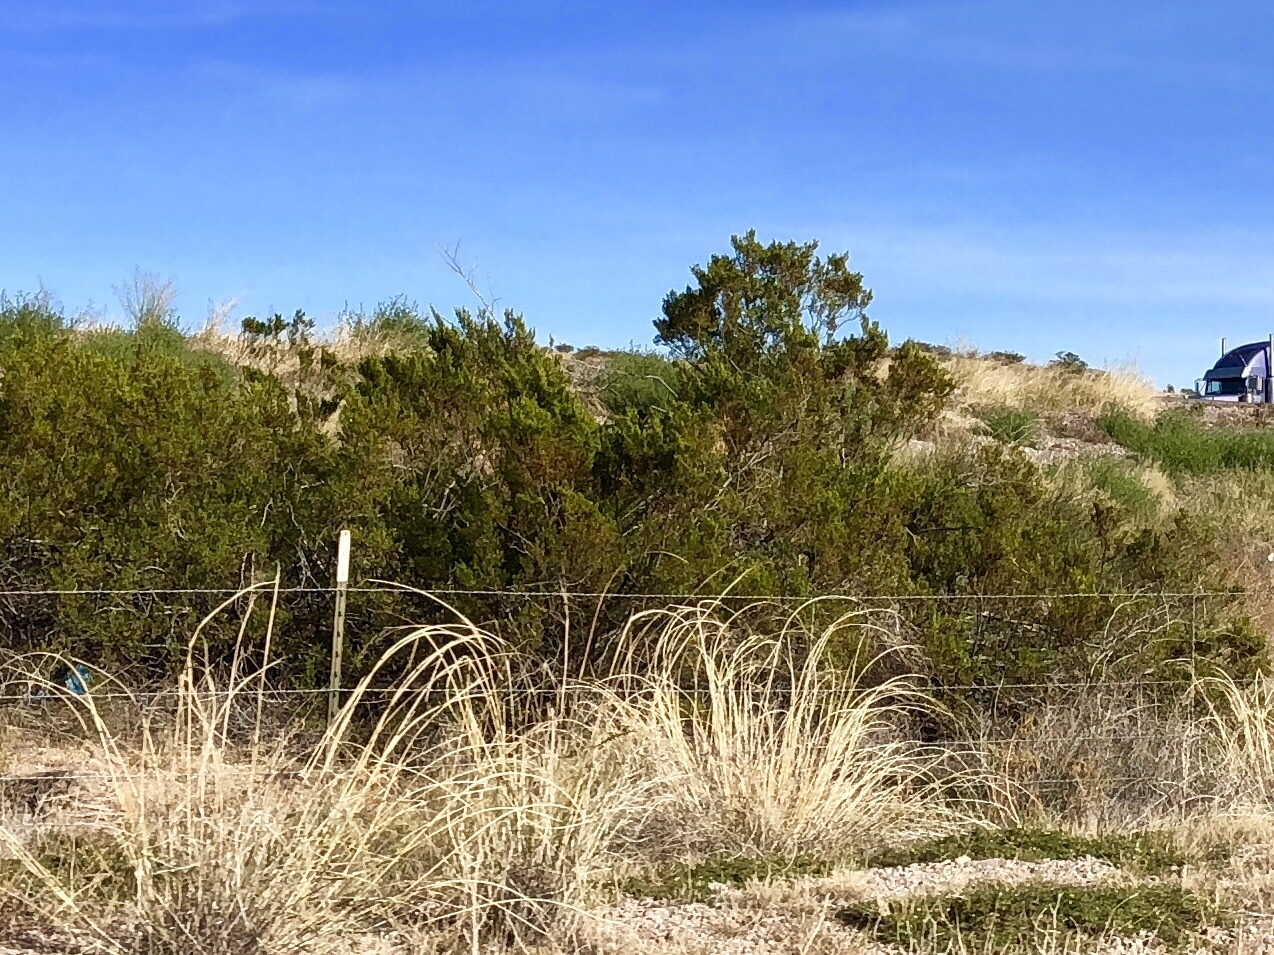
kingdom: Plantae
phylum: Tracheophyta
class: Magnoliopsida
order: Zygophyllales
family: Zygophyllaceae
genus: Larrea
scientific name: Larrea tridentata
